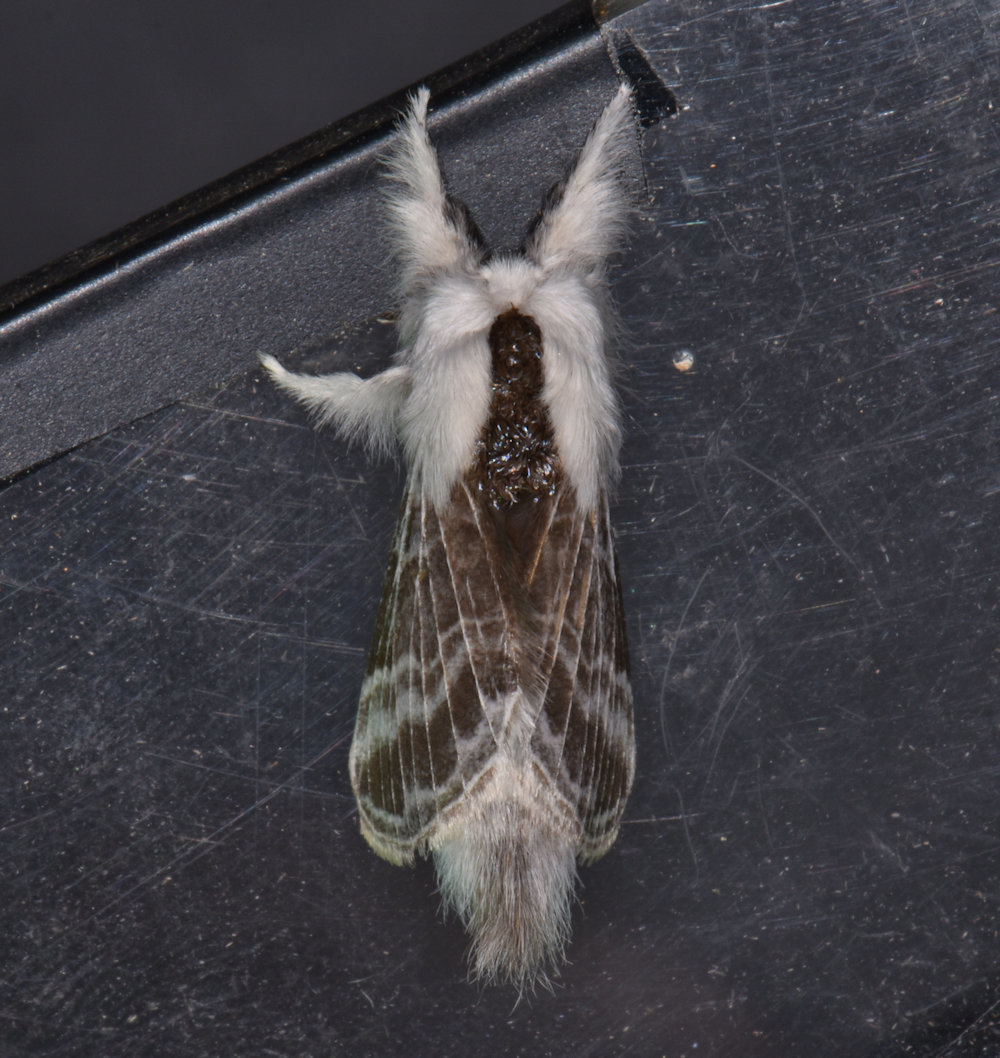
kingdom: Animalia
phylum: Arthropoda
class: Insecta
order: Lepidoptera
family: Lasiocampidae
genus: Tolype
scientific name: Tolype velleda
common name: Large tolype moth
